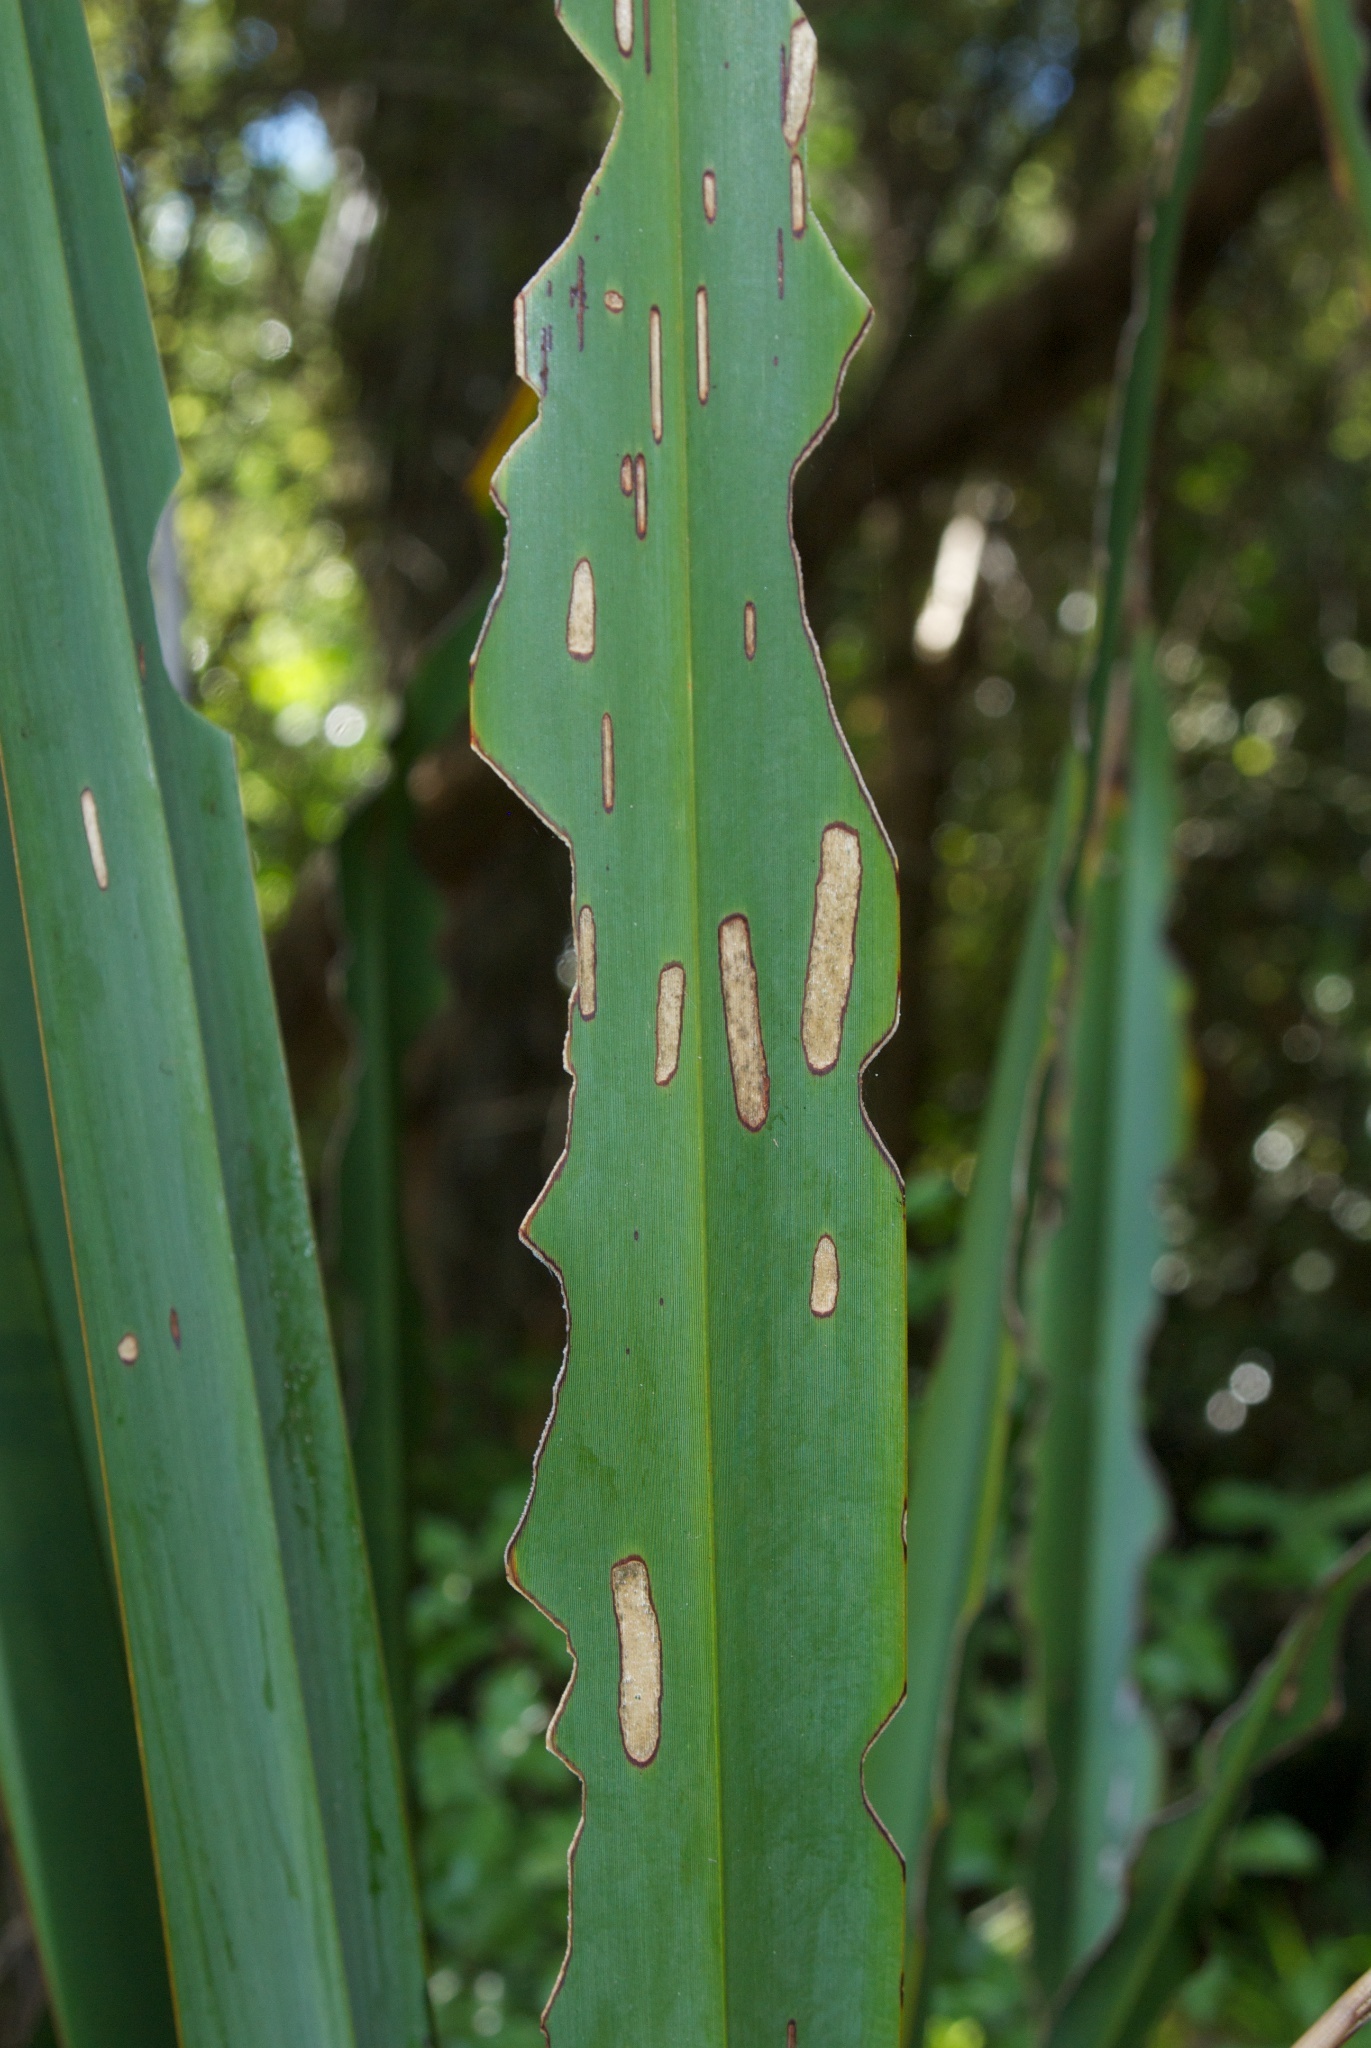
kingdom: Animalia
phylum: Arthropoda
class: Insecta
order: Lepidoptera
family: Geometridae
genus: Orthoclydon
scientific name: Orthoclydon praefectata
